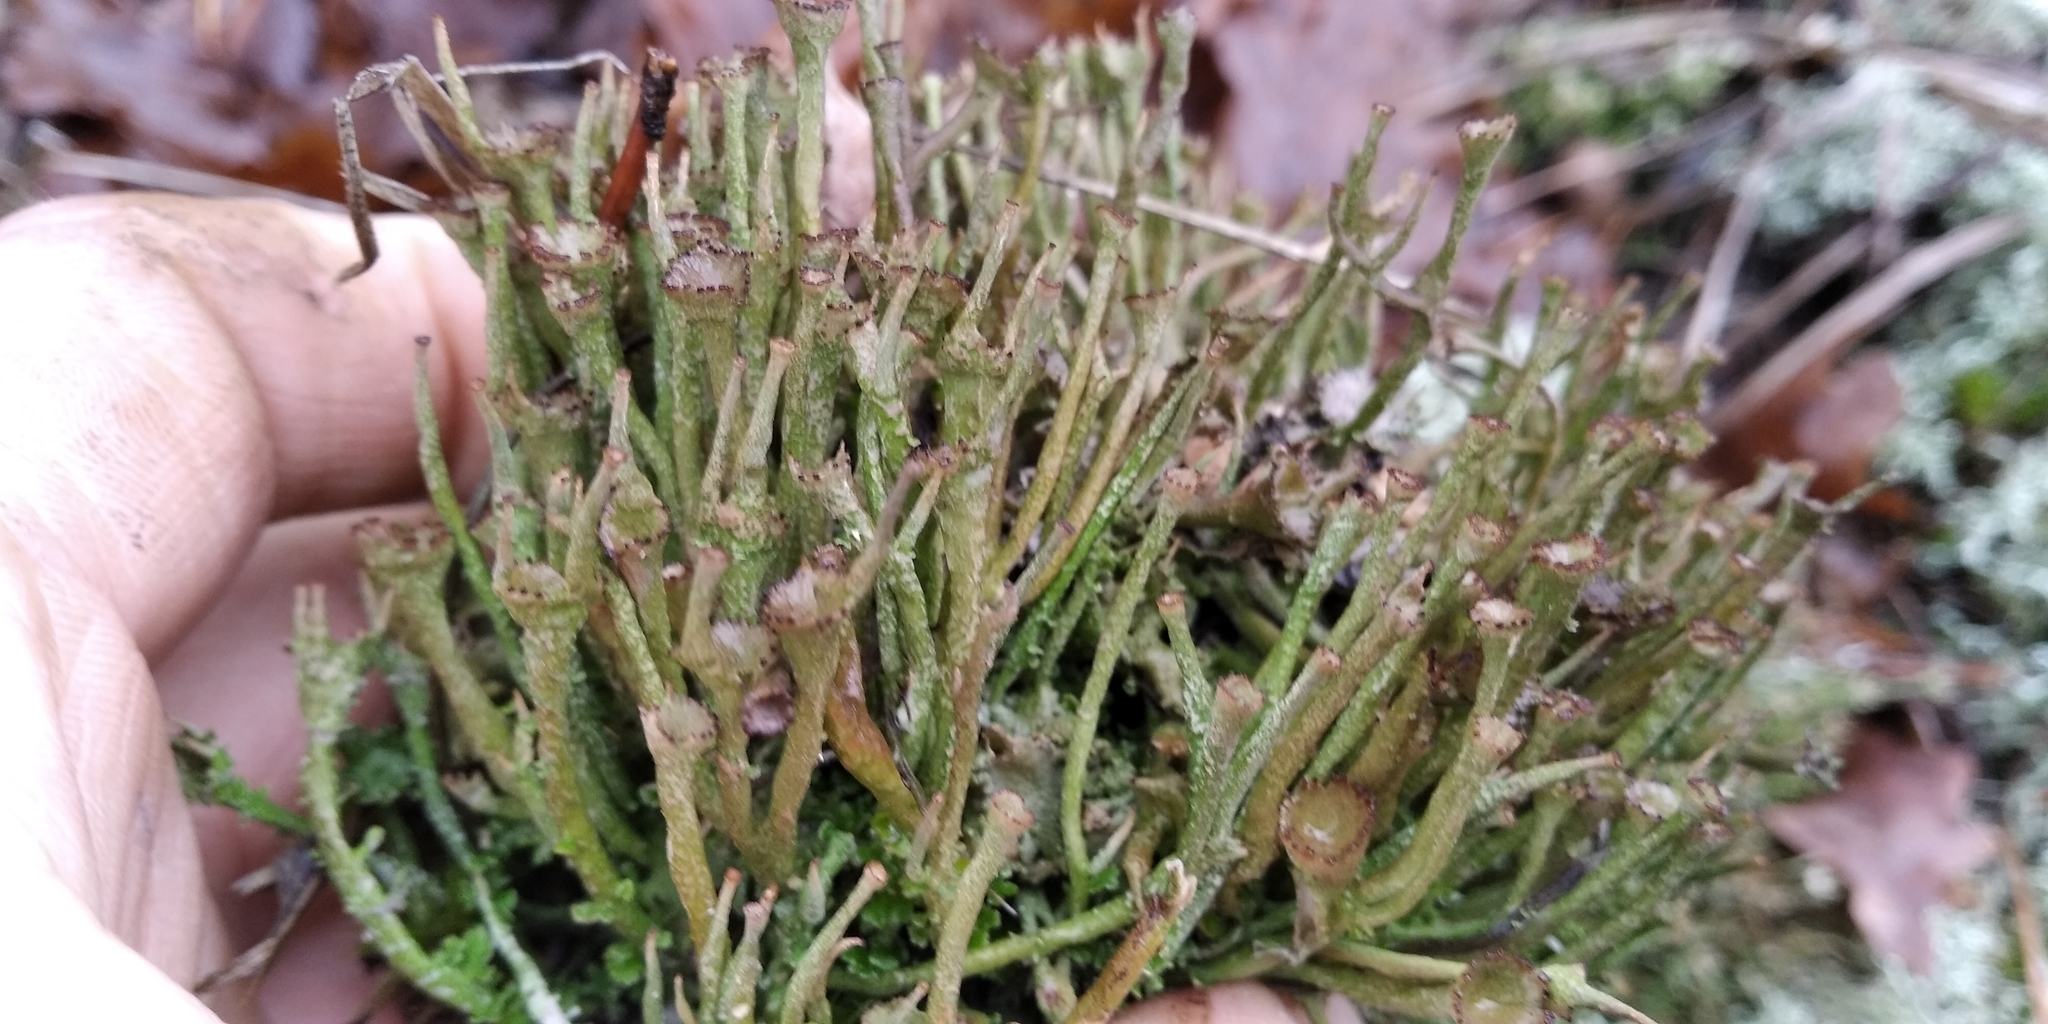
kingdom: Fungi
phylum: Ascomycota
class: Lecanoromycetes
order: Lecanorales
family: Cladoniaceae
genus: Cladonia
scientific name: Cladonia gracilis
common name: Smooth clad lichen
